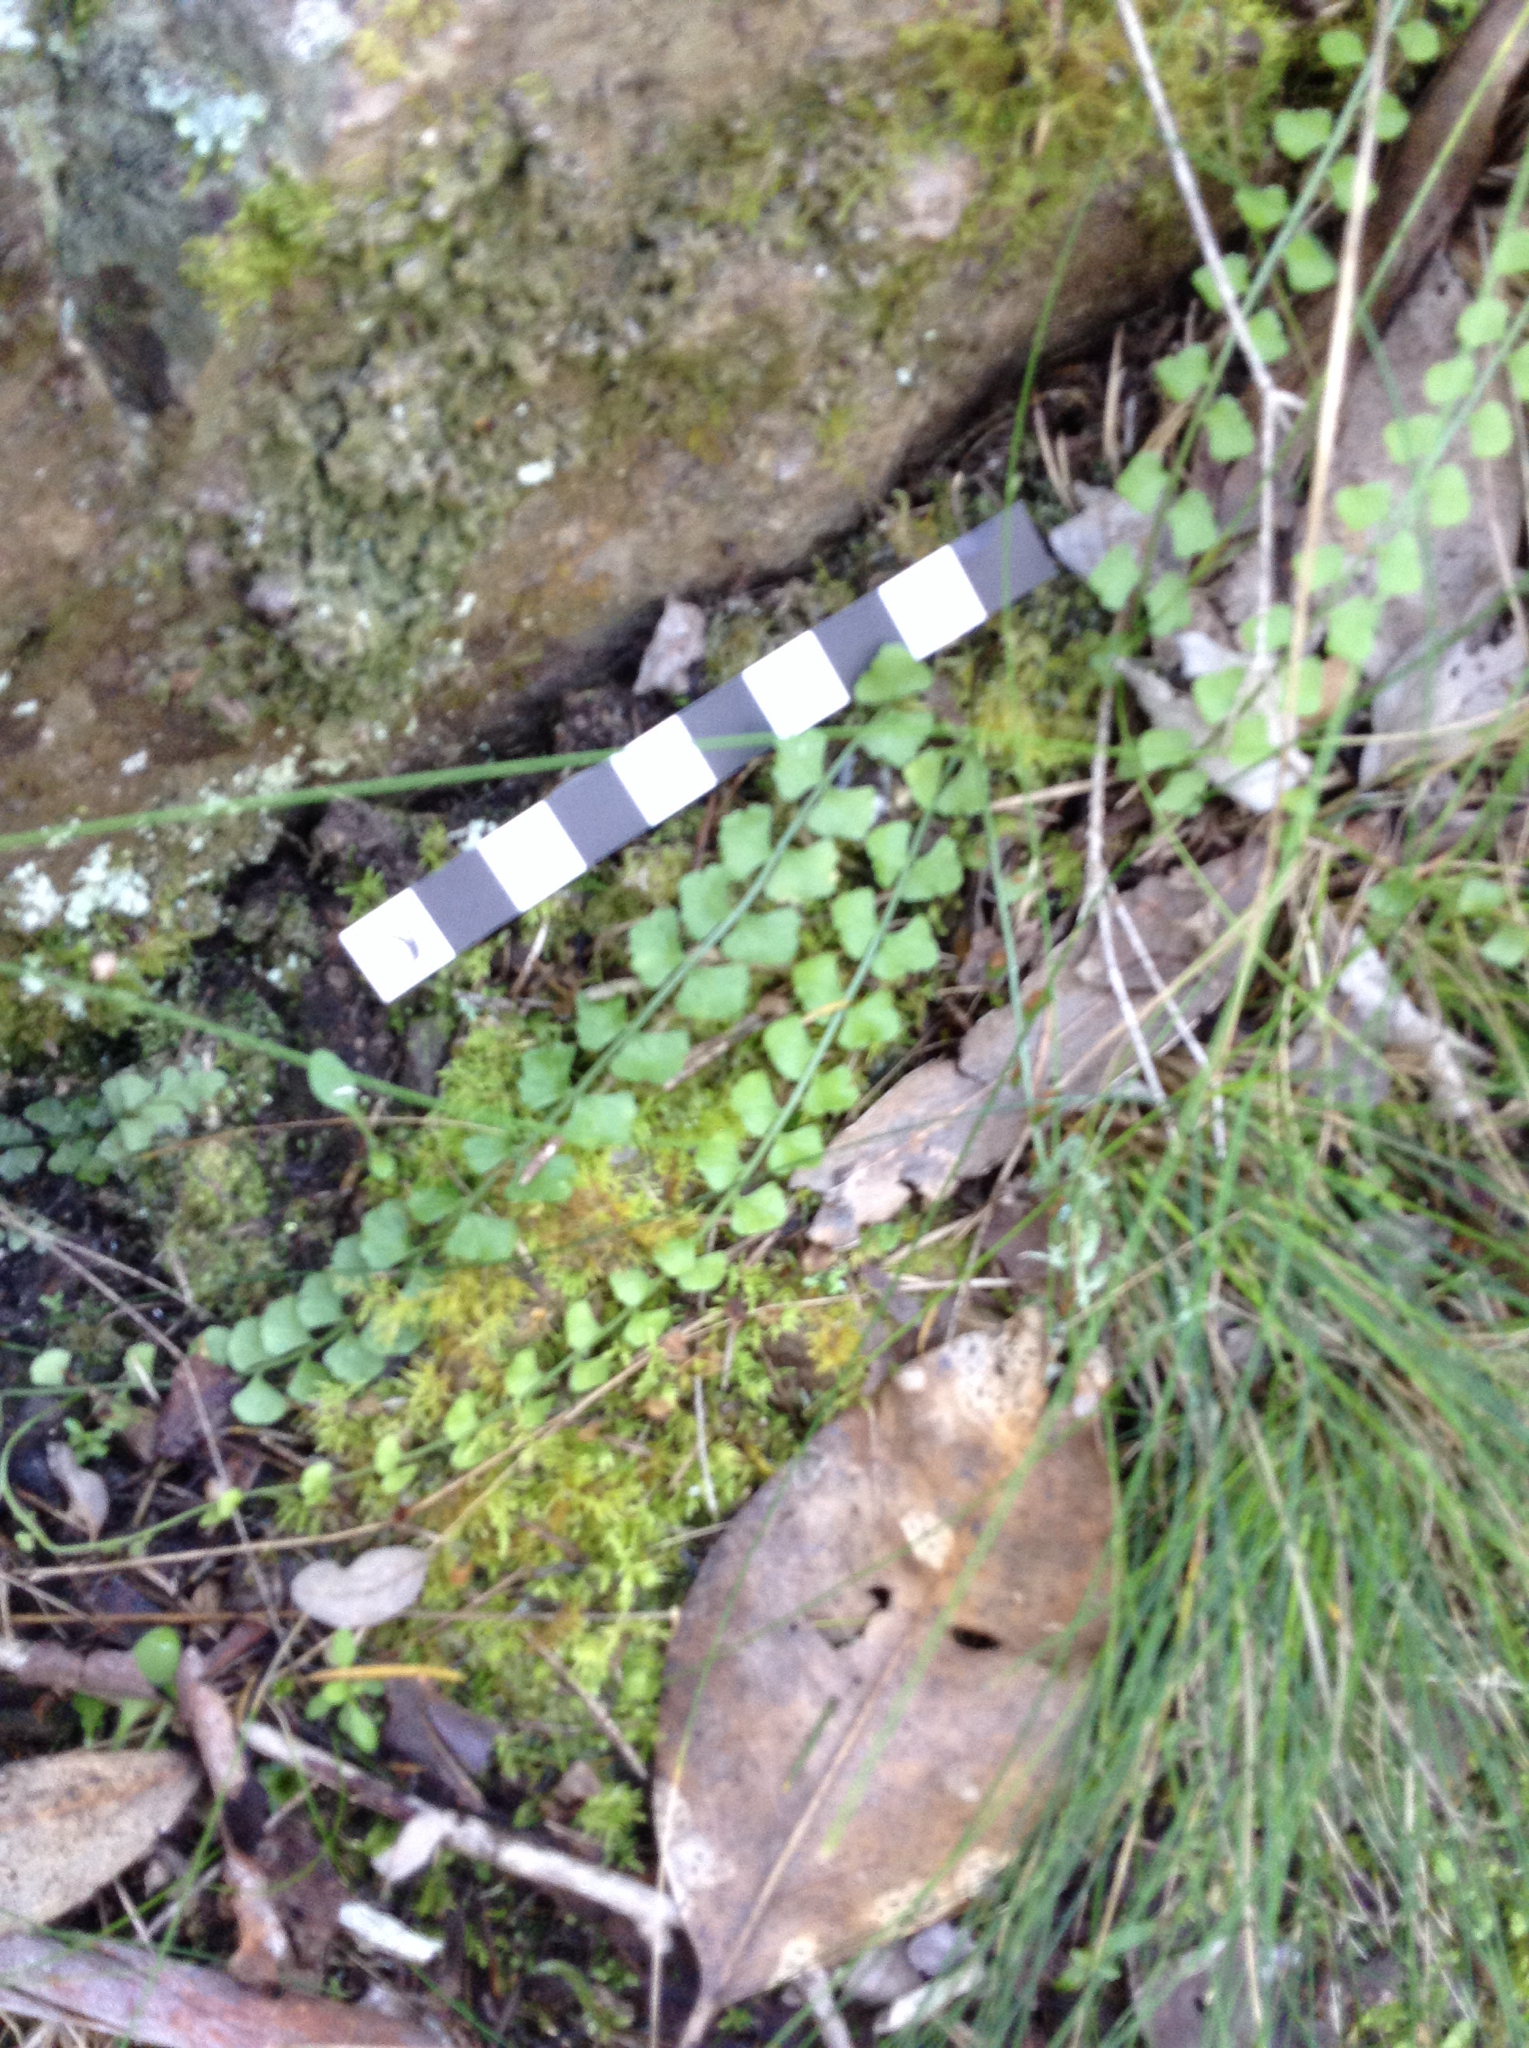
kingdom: Plantae
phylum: Tracheophyta
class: Polypodiopsida
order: Polypodiales
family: Aspleniaceae
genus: Asplenium
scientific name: Asplenium flabellifolium
